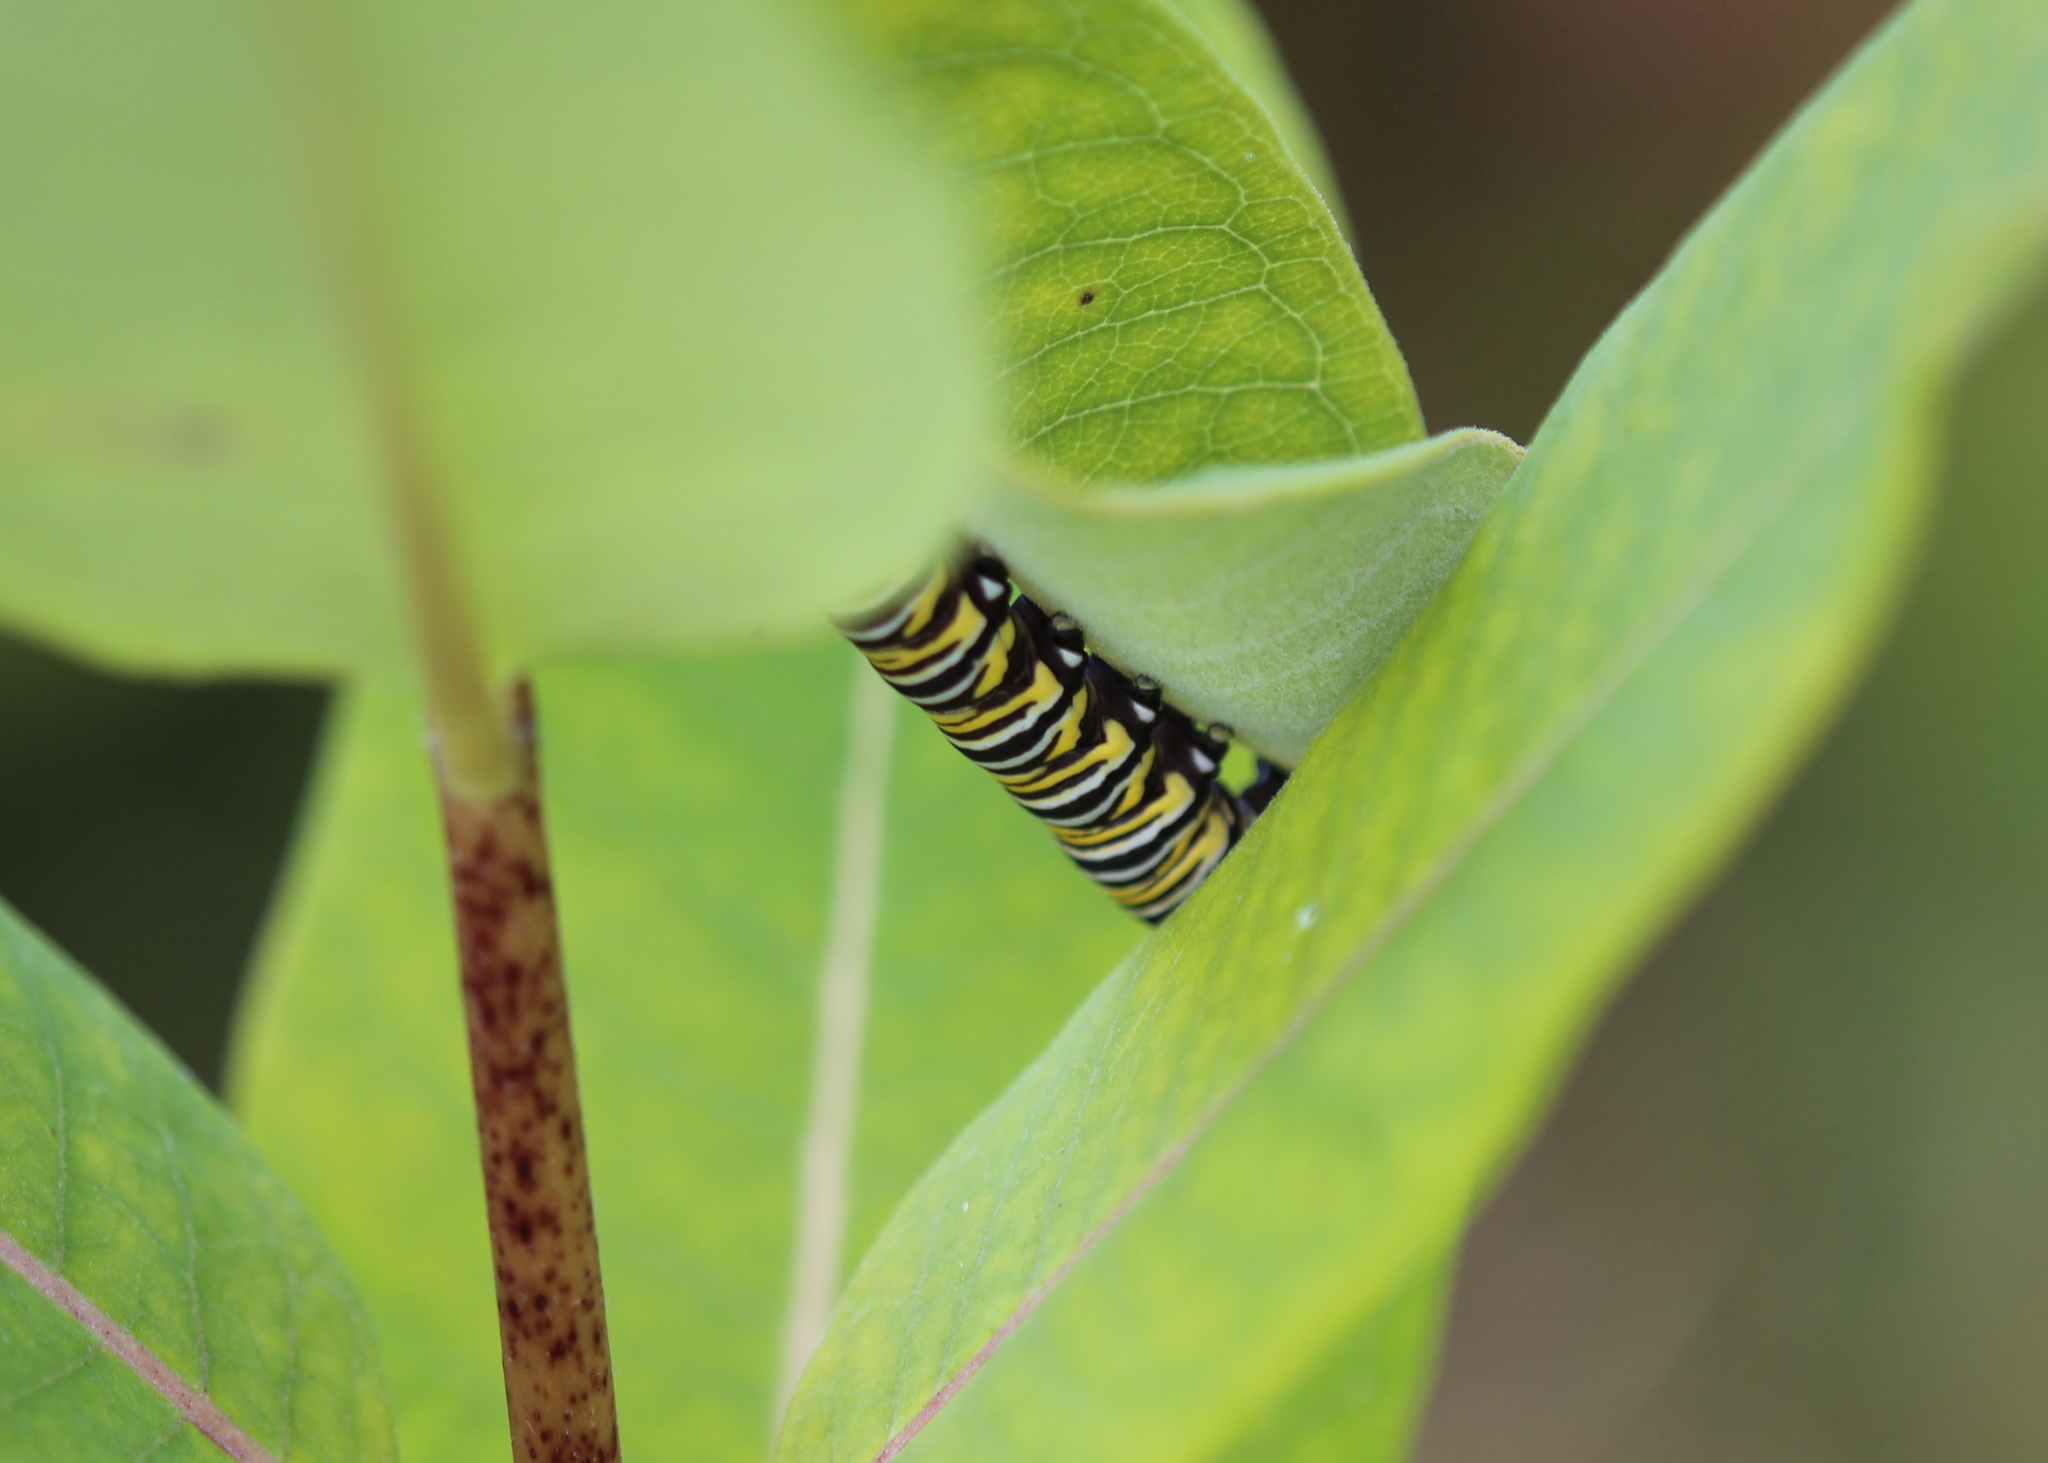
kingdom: Animalia
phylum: Arthropoda
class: Insecta
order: Lepidoptera
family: Nymphalidae
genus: Danaus
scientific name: Danaus plexippus
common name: Monarch
